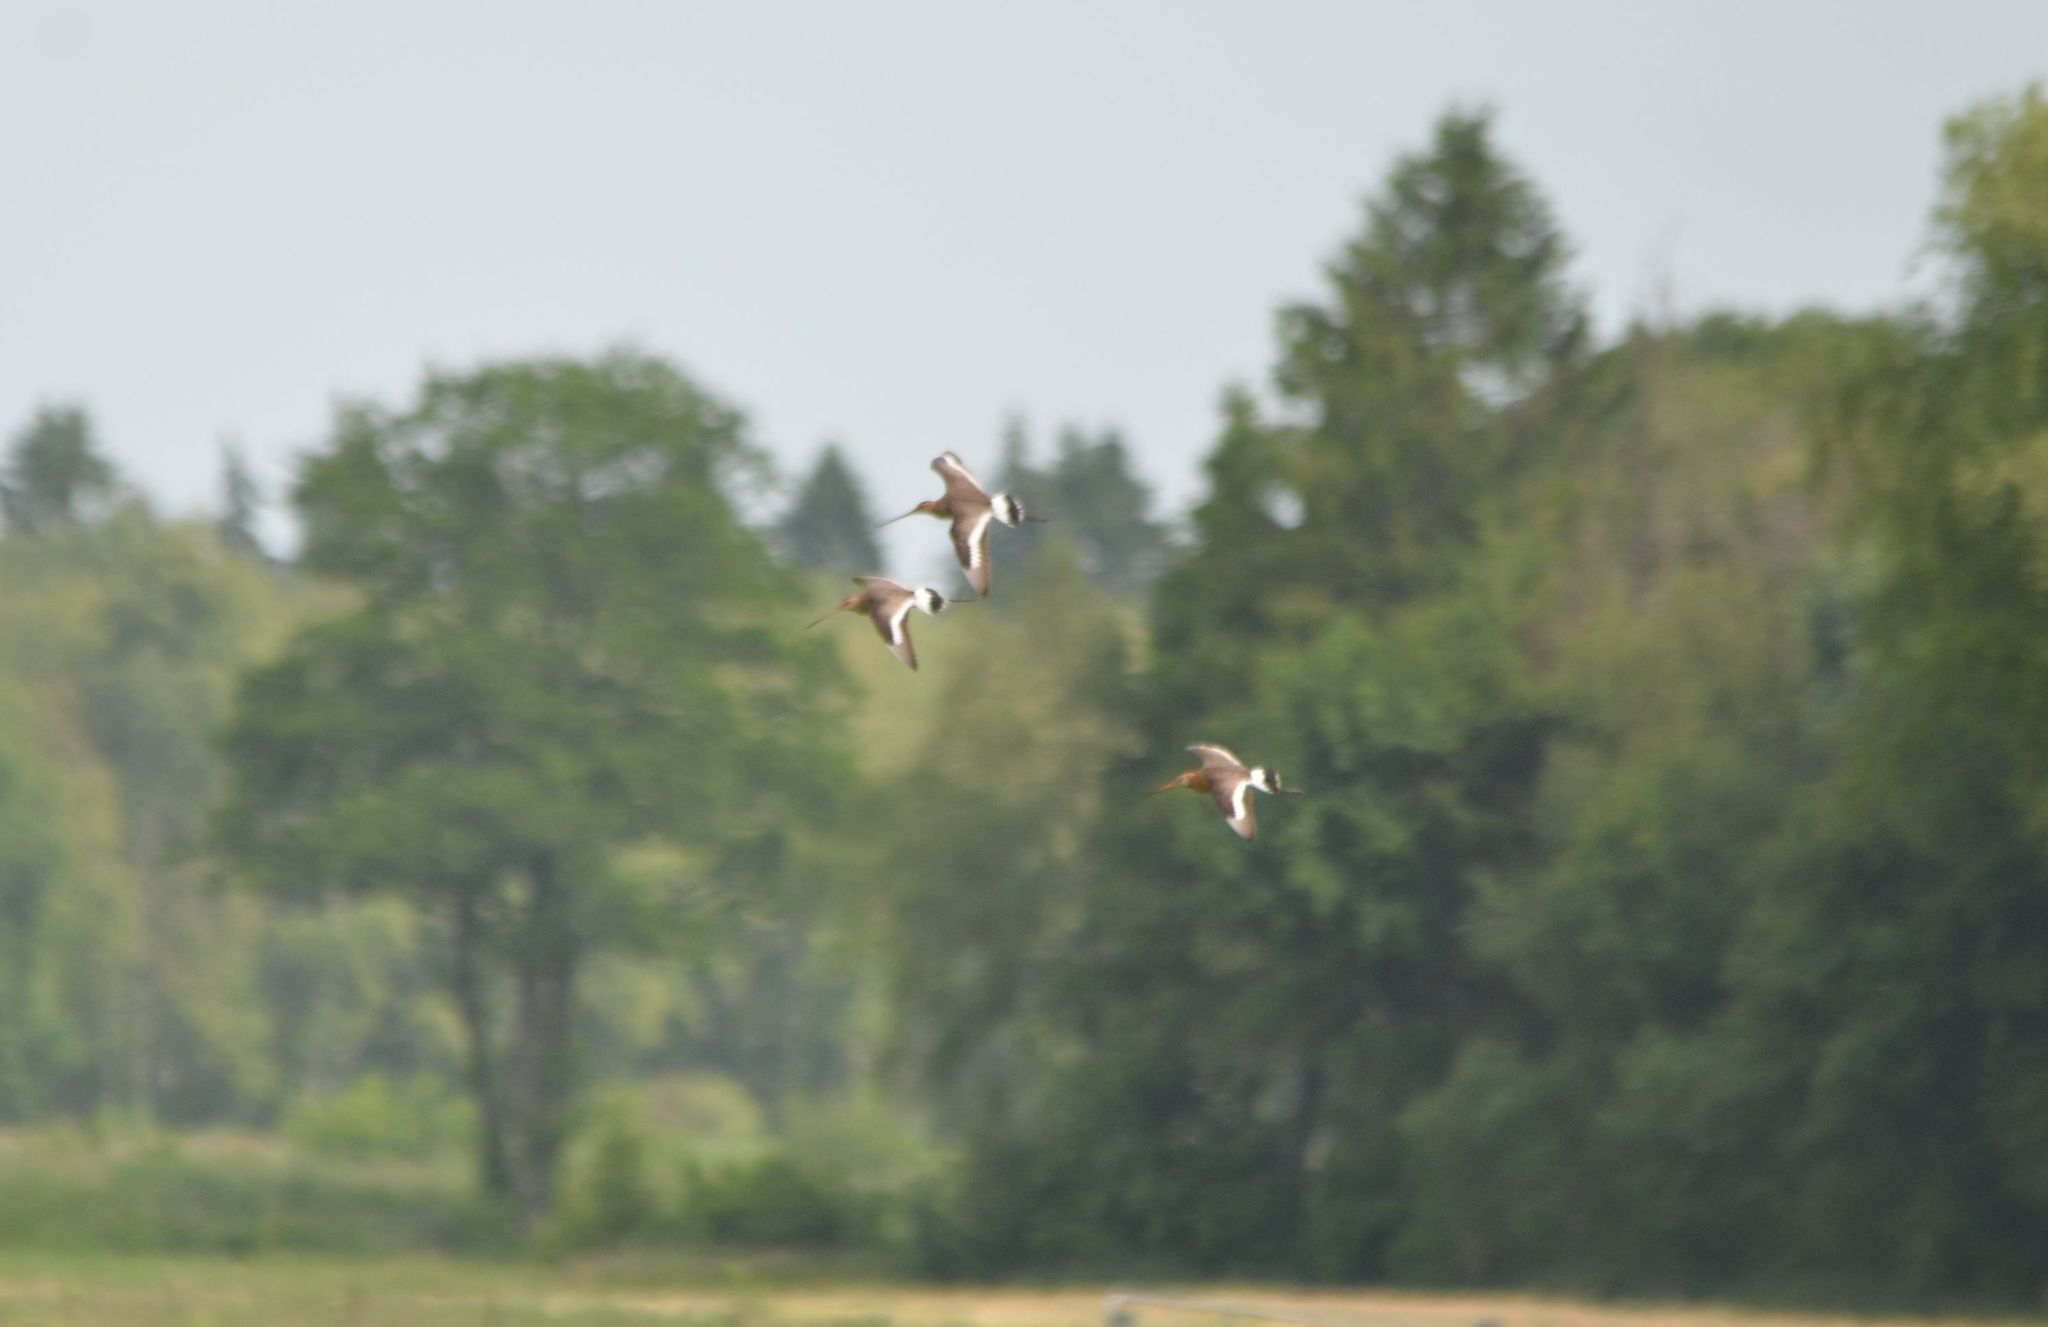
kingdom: Animalia
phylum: Chordata
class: Aves
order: Charadriiformes
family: Scolopacidae
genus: Limosa
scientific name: Limosa limosa
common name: Black-tailed godwit
